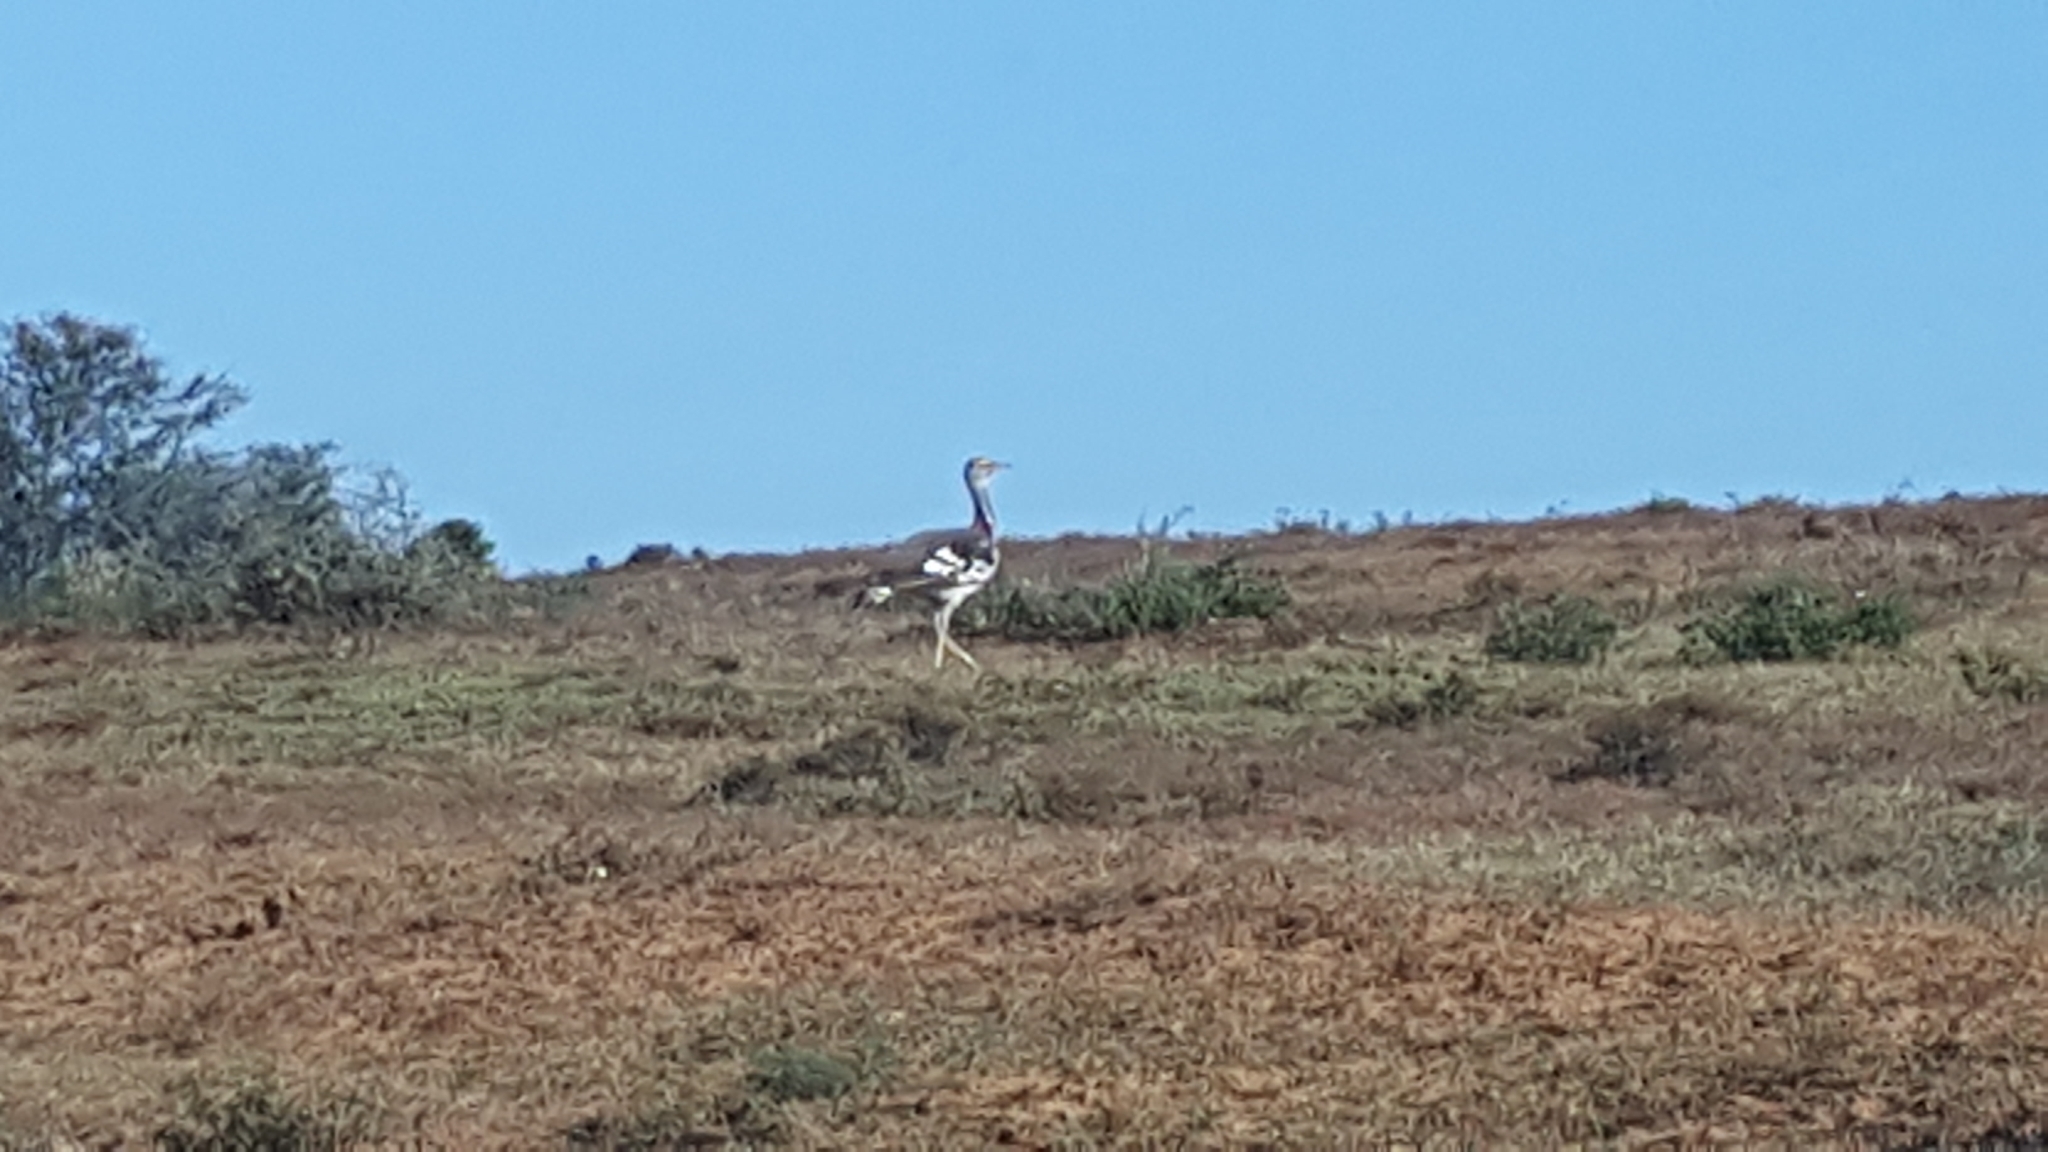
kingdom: Animalia
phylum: Chordata
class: Aves
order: Otidiformes
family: Otididae
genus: Neotis
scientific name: Neotis denhami
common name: Denham's bustard
